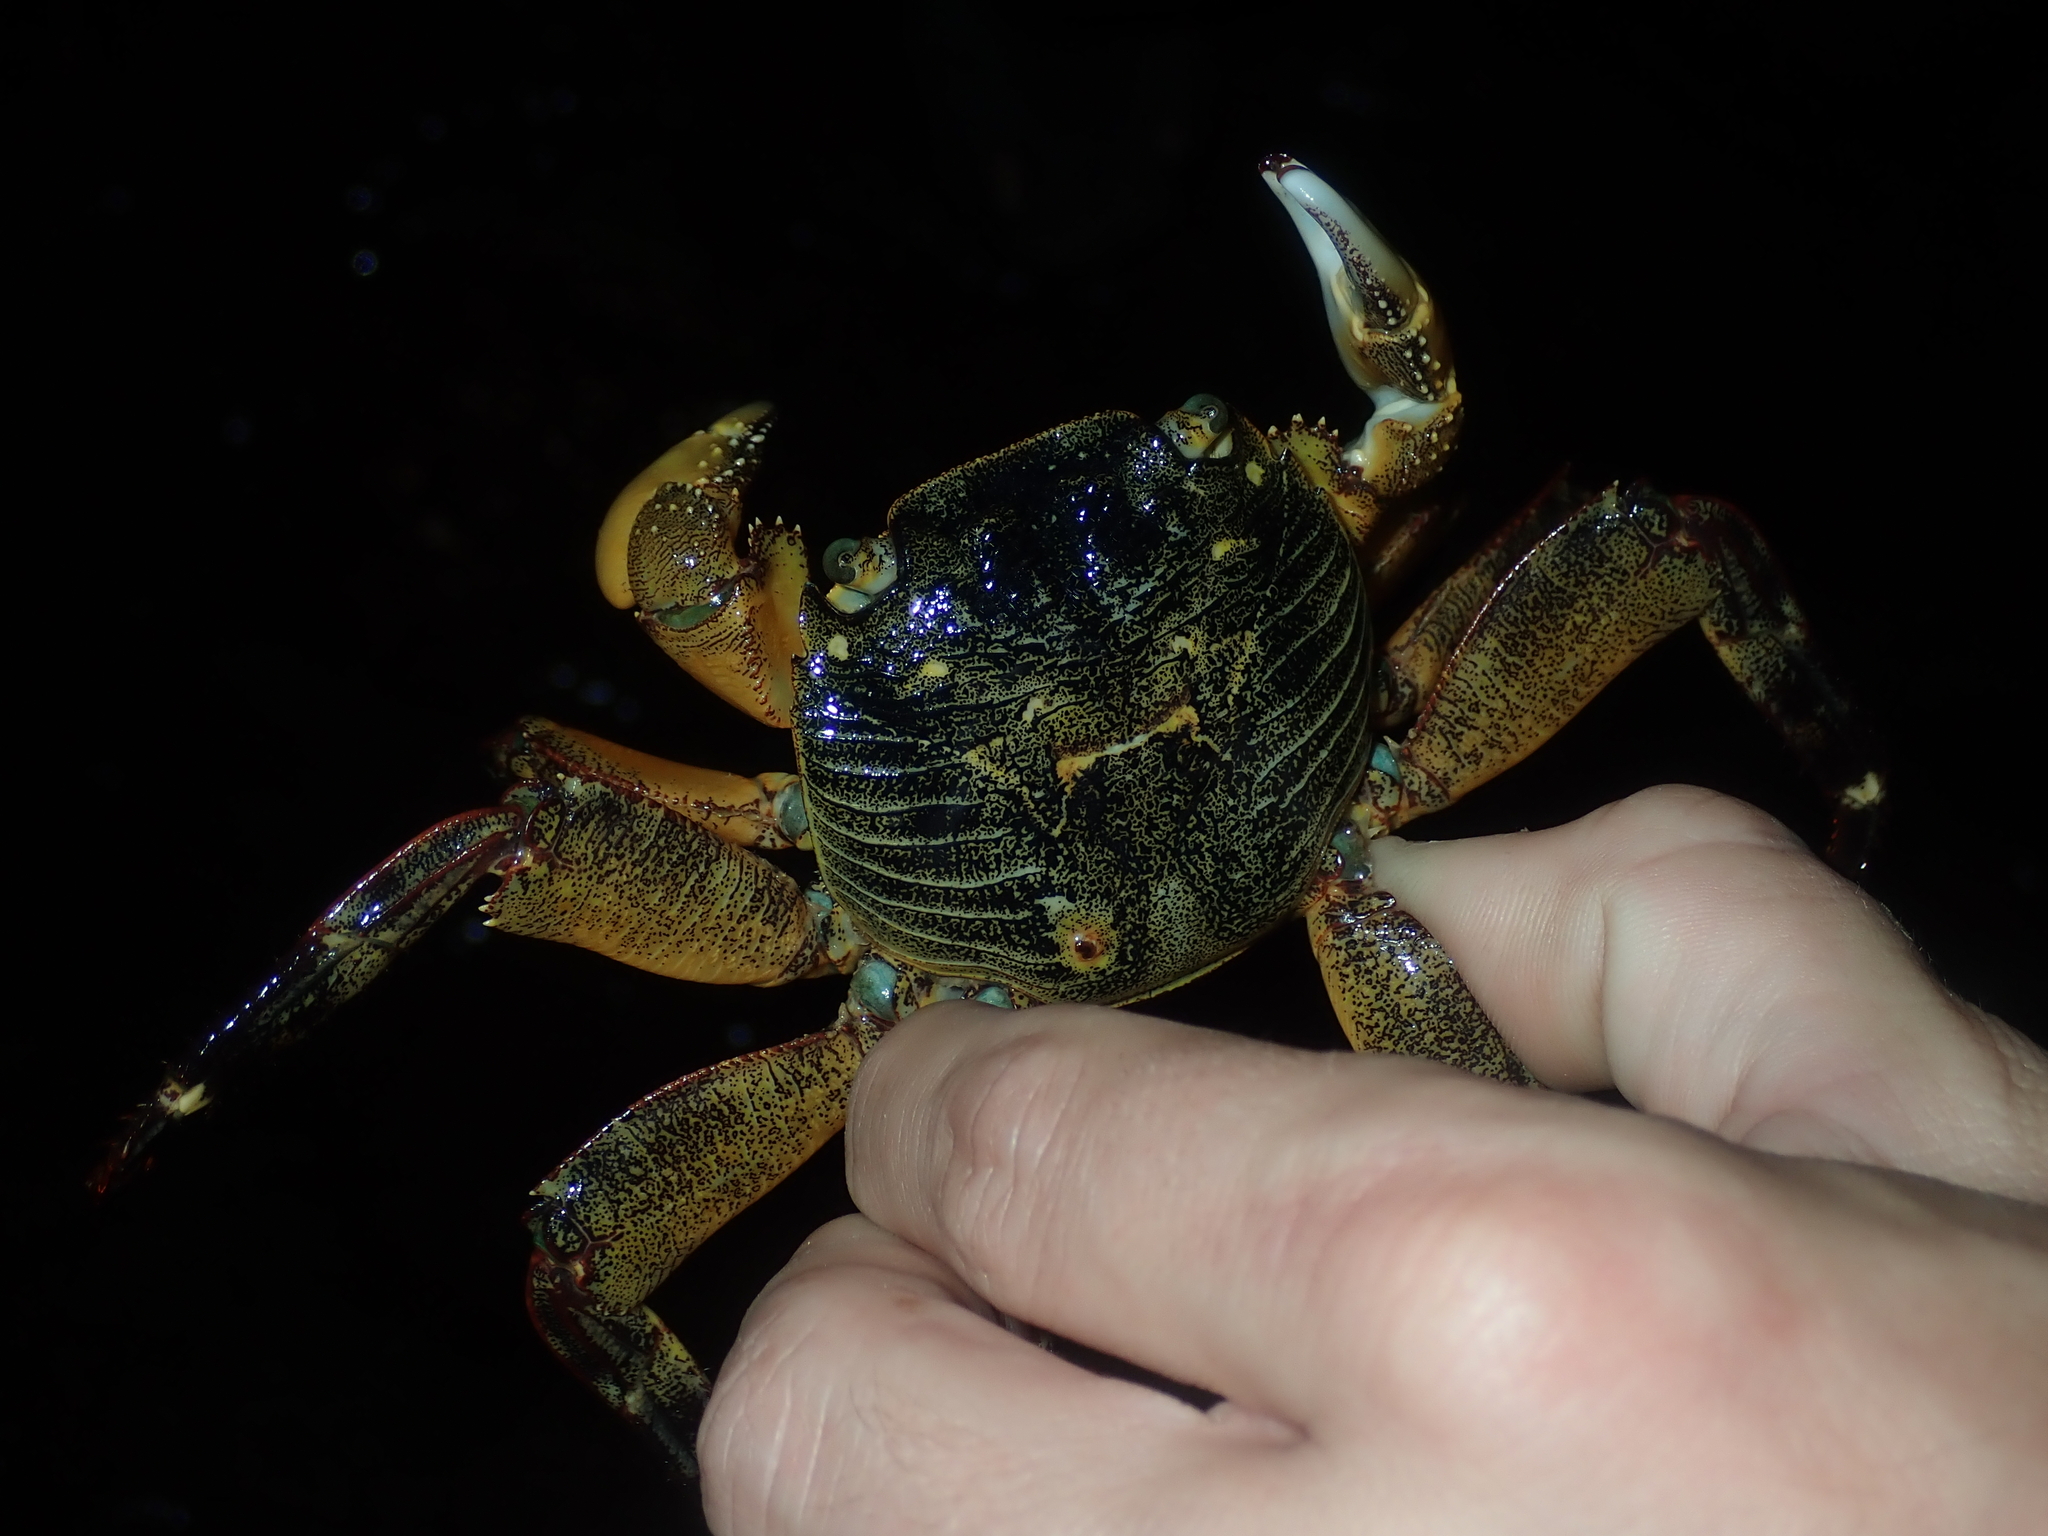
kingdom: Animalia
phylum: Arthropoda
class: Malacostraca
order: Decapoda
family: Grapsidae
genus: Leptograpsus
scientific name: Leptograpsus variegatus
